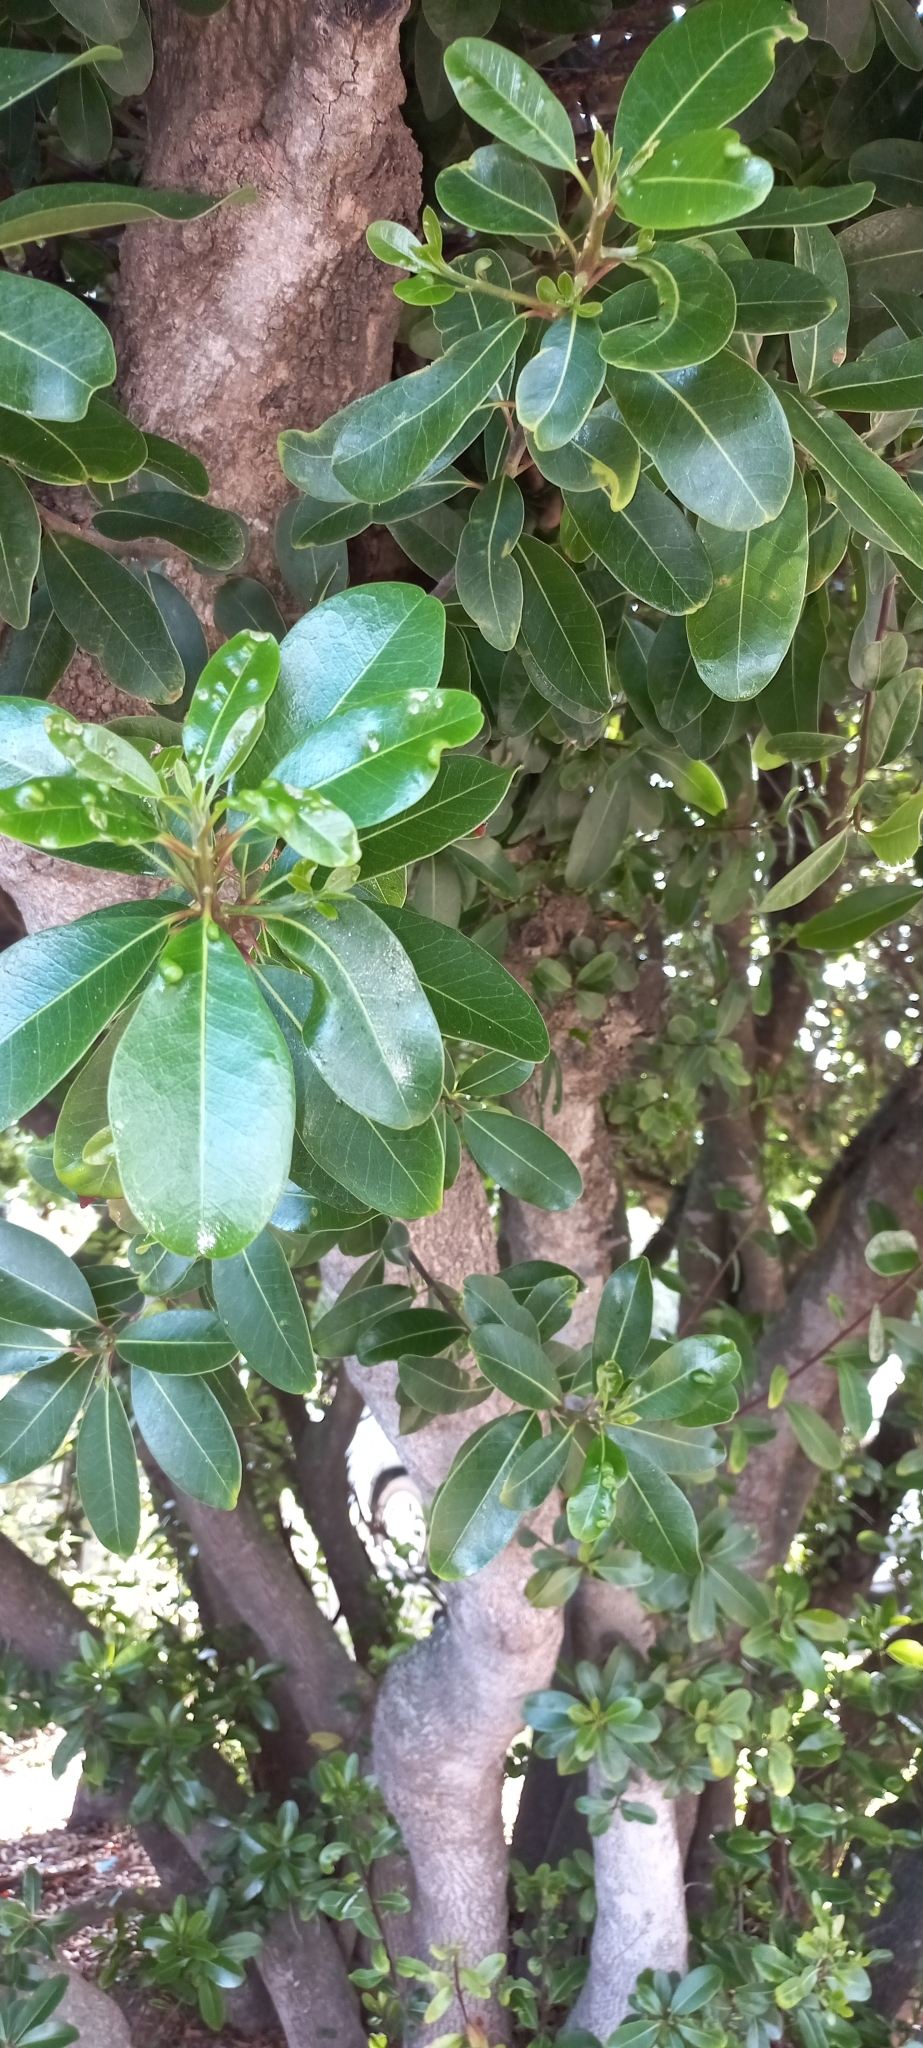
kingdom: Plantae
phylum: Tracheophyta
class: Magnoliopsida
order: Ericales
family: Sapotaceae
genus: Sideroxylon
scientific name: Sideroxylon inerme
